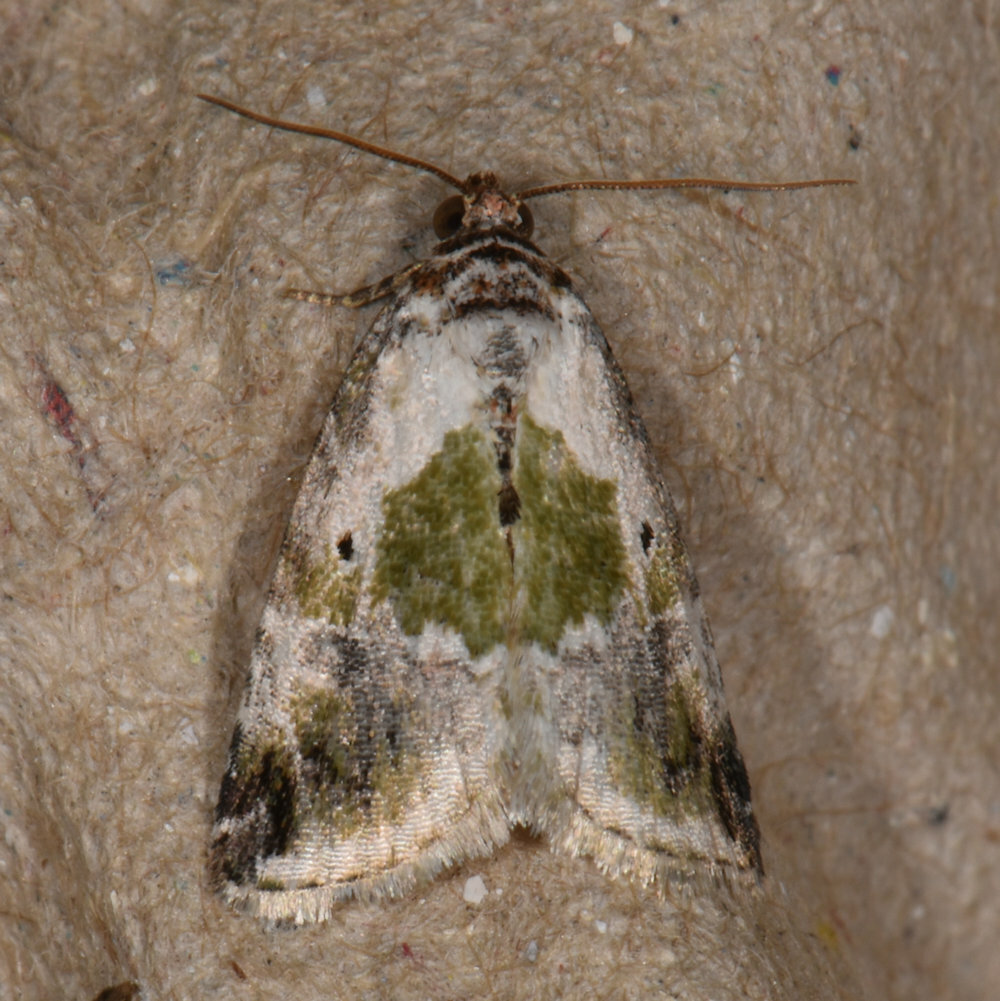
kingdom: Animalia
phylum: Arthropoda
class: Insecta
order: Lepidoptera
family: Noctuidae
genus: Maliattha
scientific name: Maliattha synochitis
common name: Black-dotted glyph
